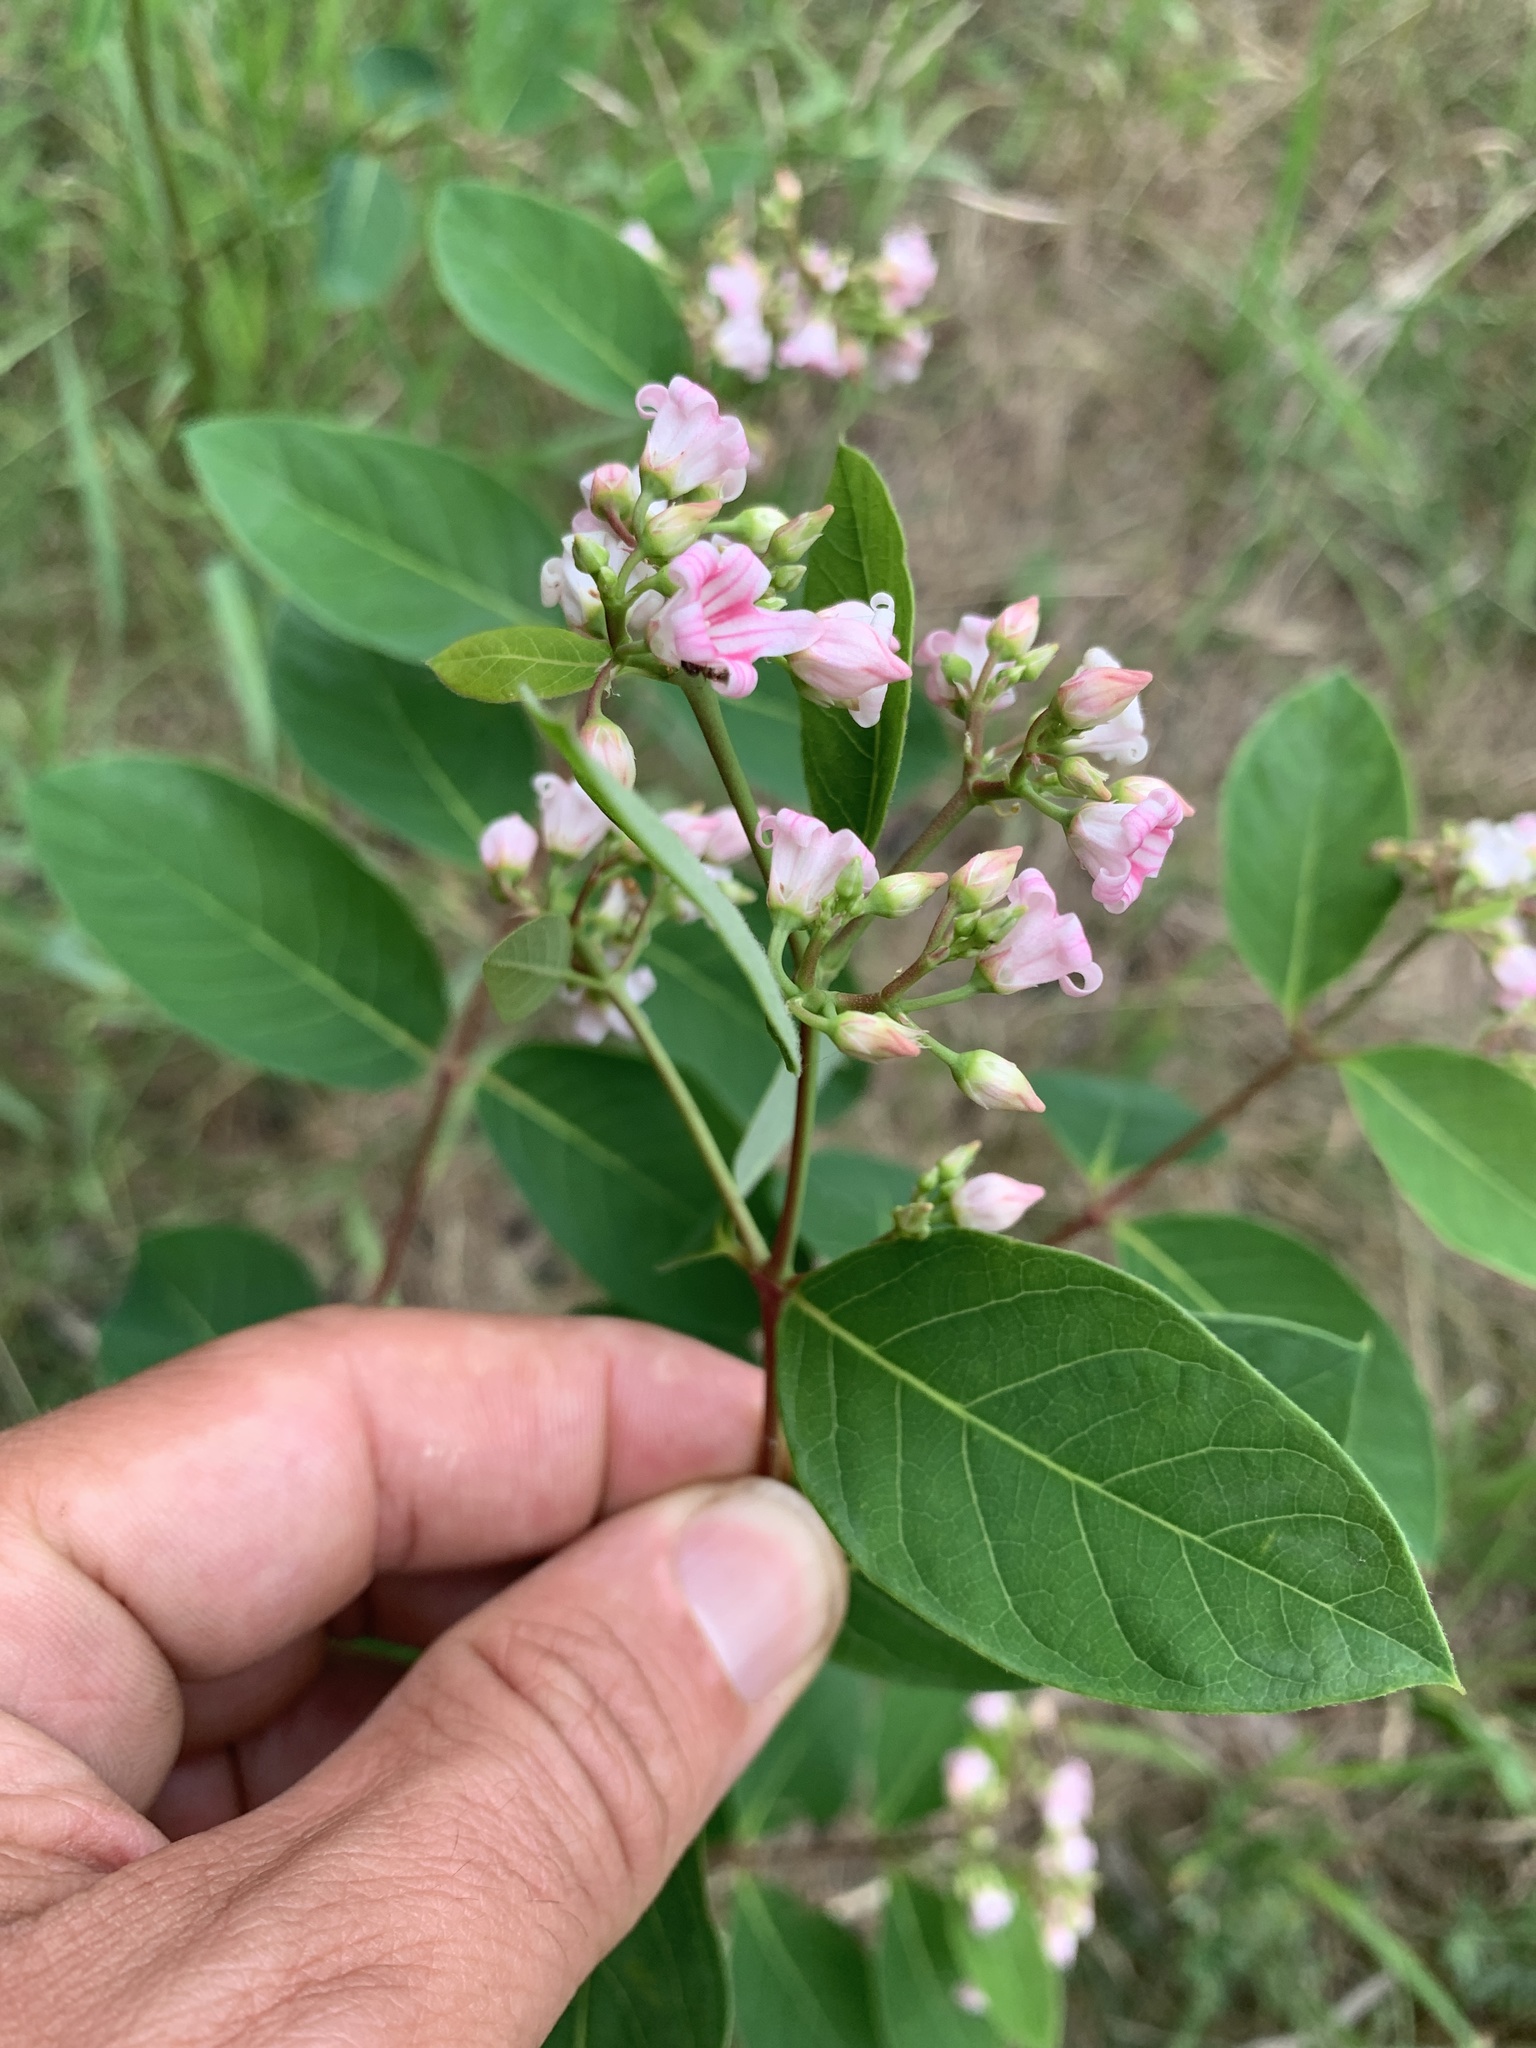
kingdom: Plantae
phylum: Tracheophyta
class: Magnoliopsida
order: Gentianales
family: Apocynaceae
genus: Apocynum
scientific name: Apocynum androsaemifolium
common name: Spreading dogbane
